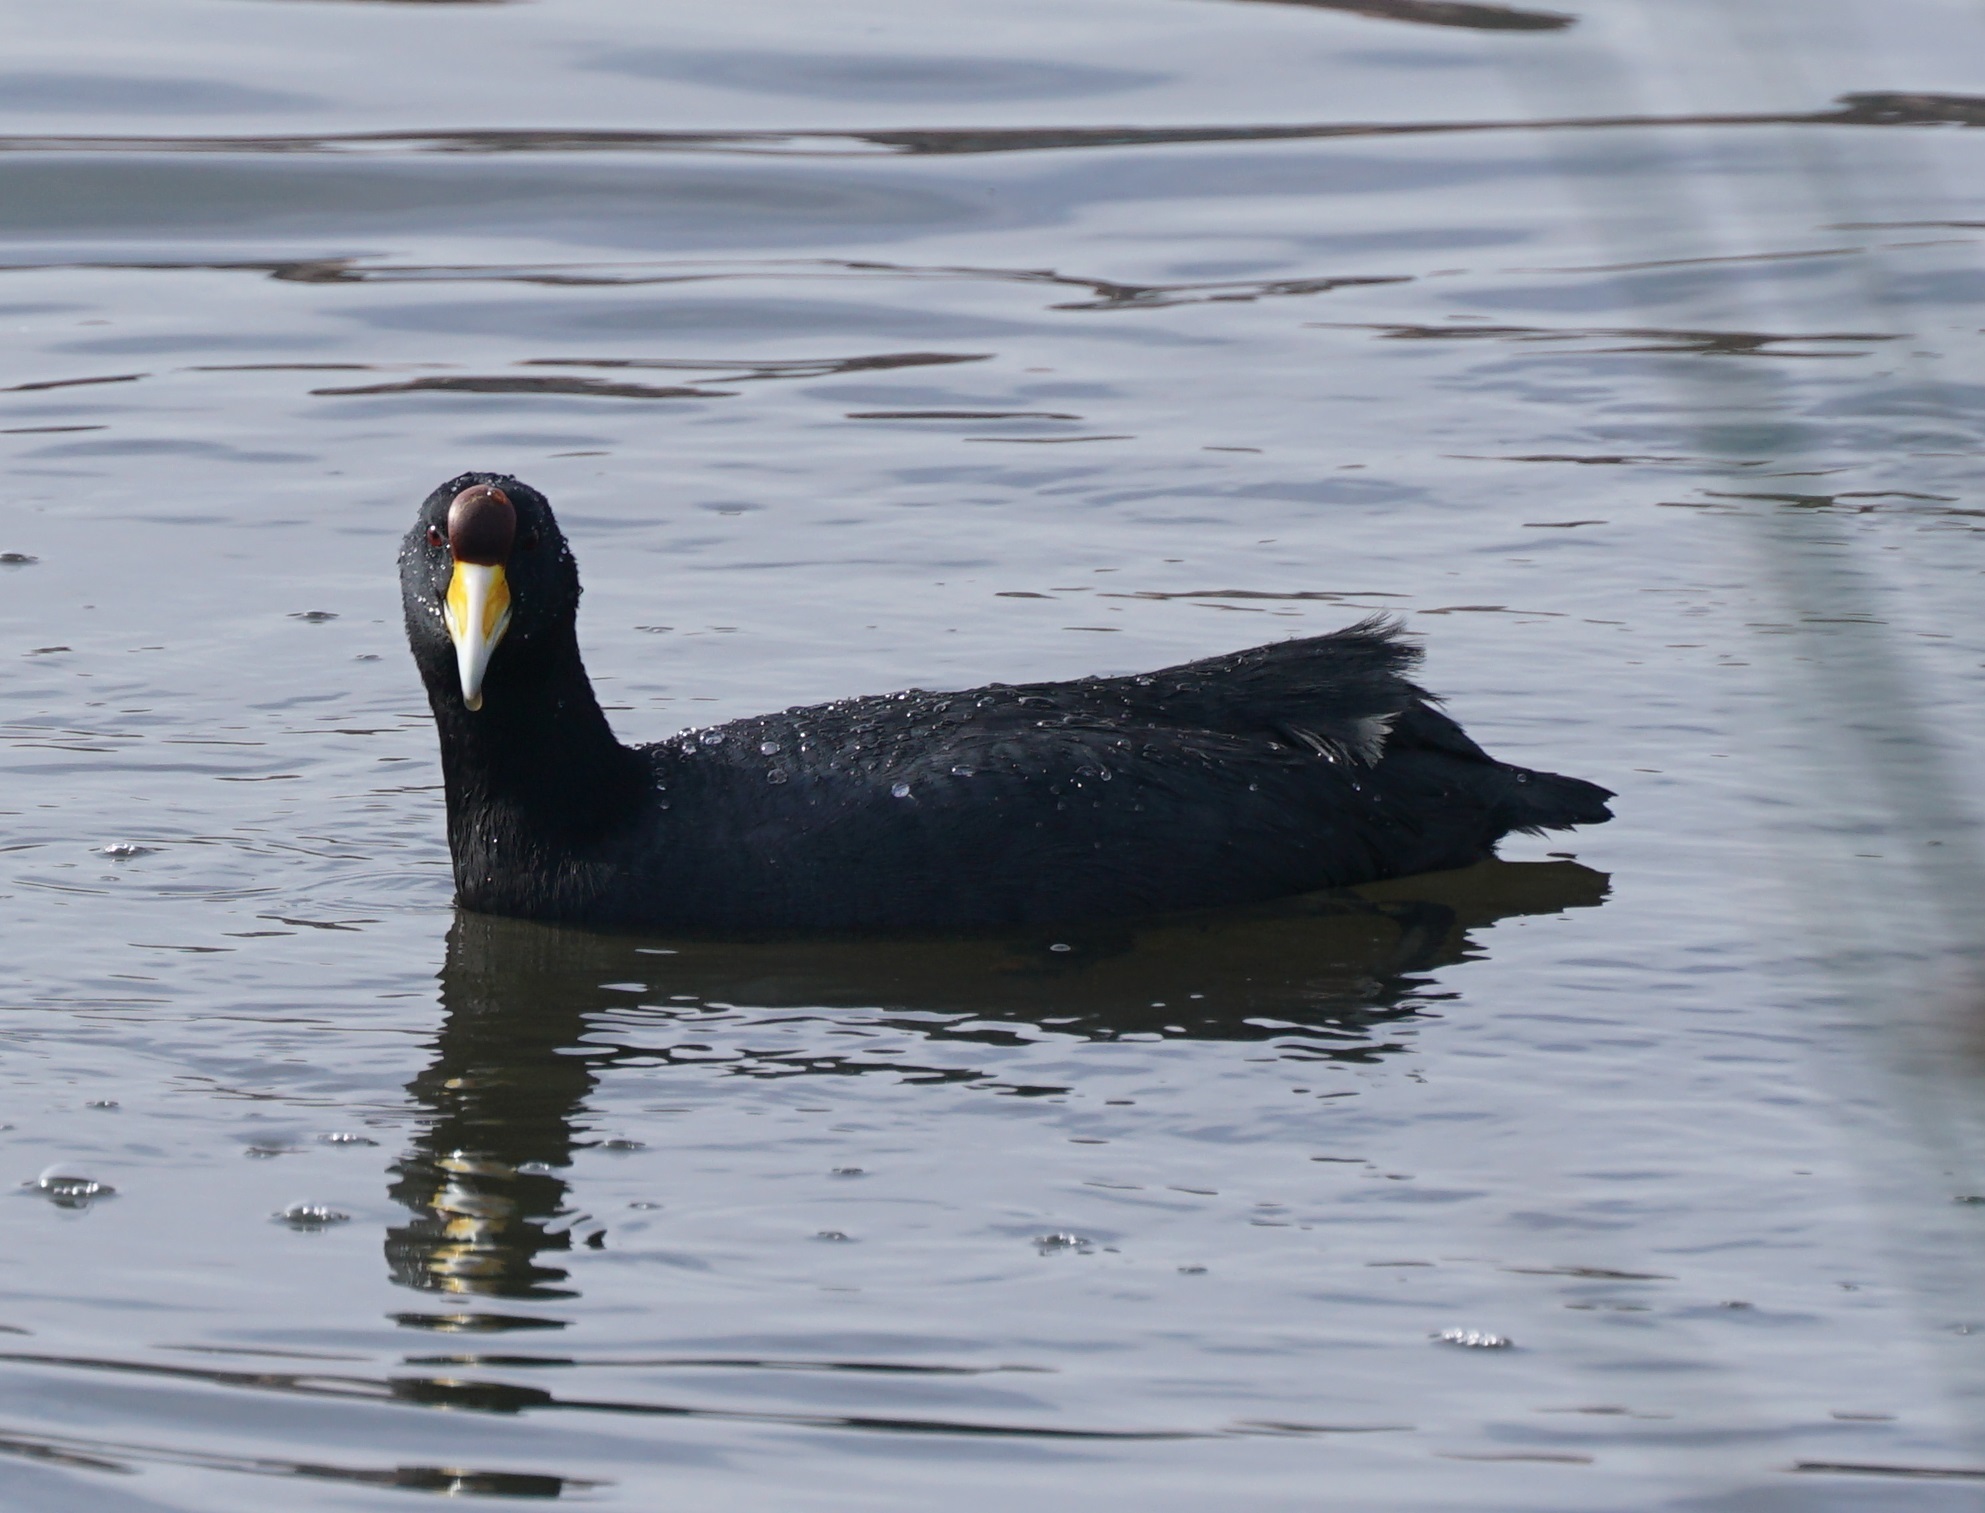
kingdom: Animalia
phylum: Chordata
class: Aves
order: Gruiformes
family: Rallidae
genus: Fulica
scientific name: Fulica ardesiaca
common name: Andean coot
